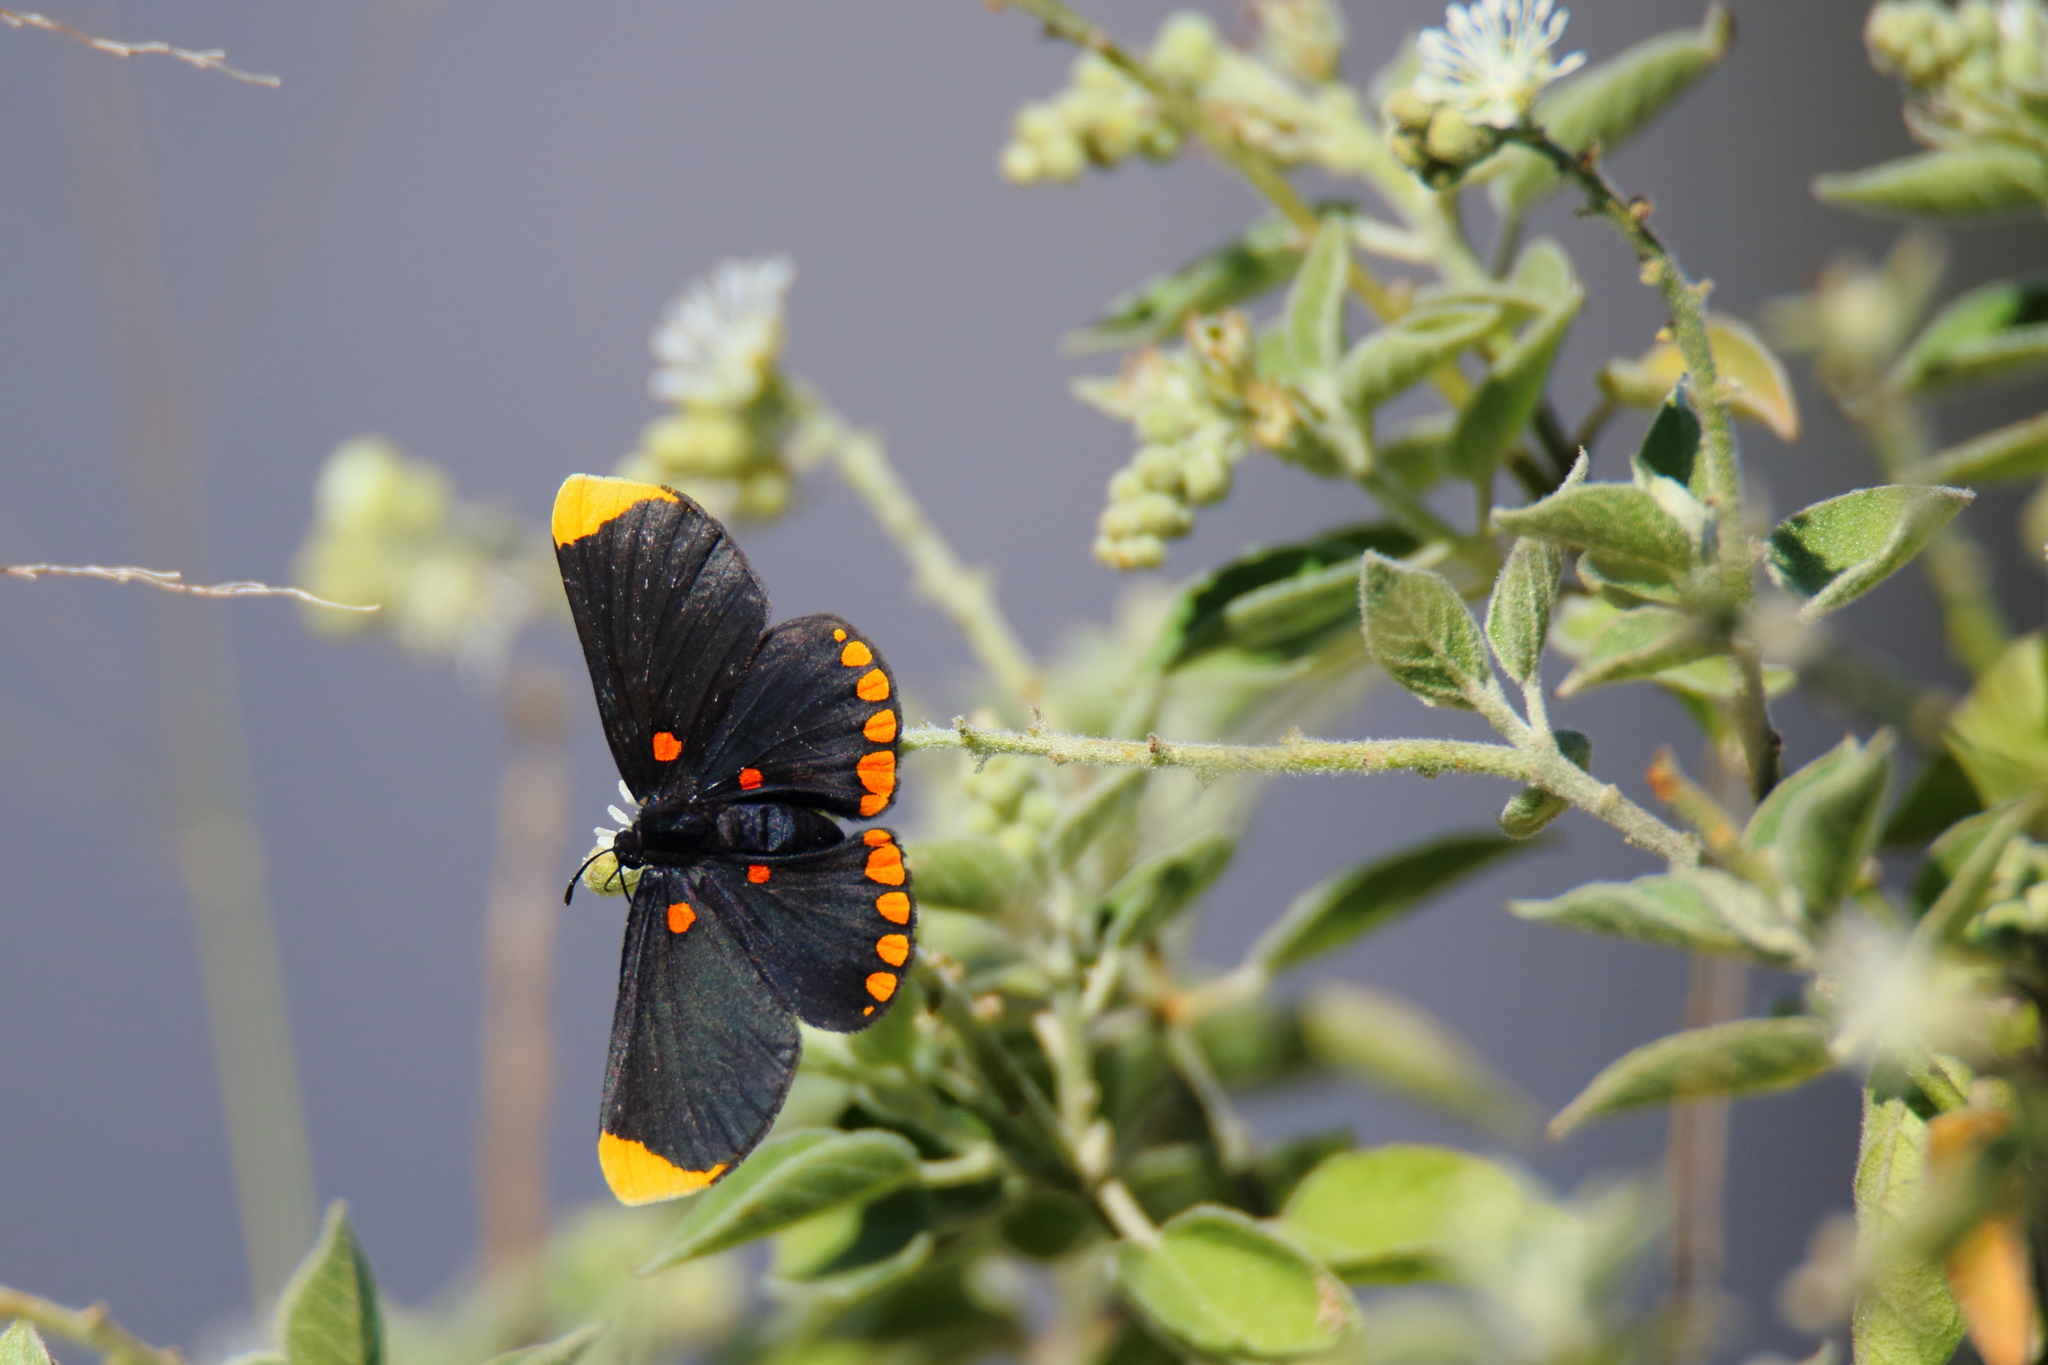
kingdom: Animalia
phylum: Arthropoda
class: Insecta
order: Lepidoptera
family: Lycaenidae
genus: Melanis
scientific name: Melanis pixe
